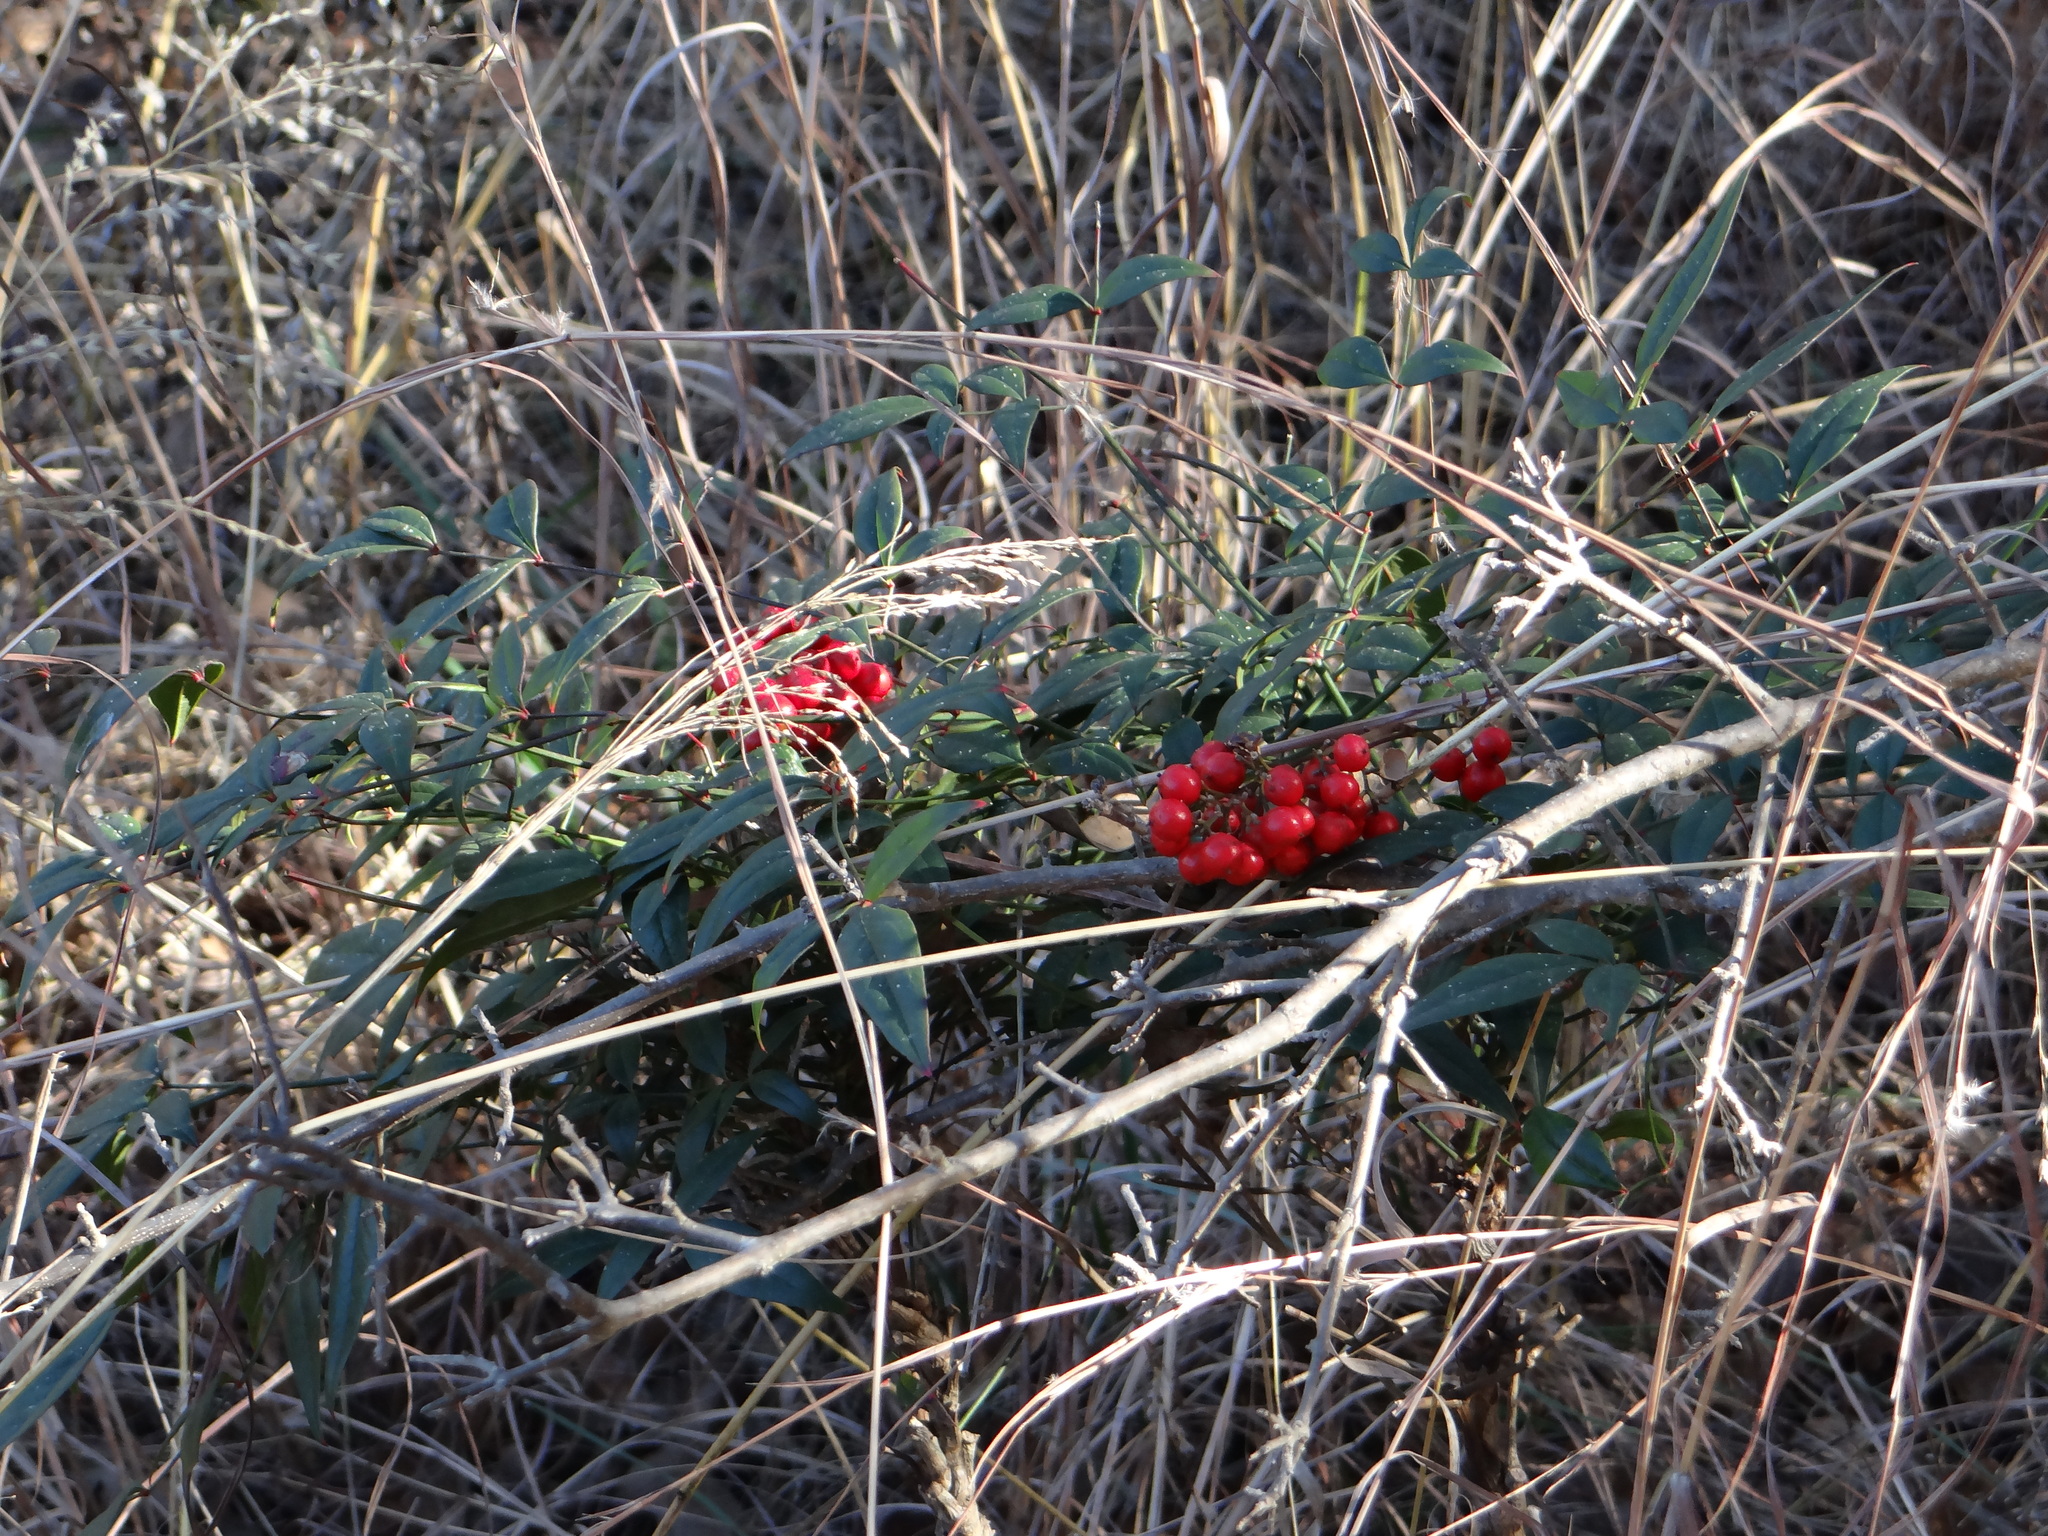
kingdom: Plantae
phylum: Tracheophyta
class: Magnoliopsida
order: Ranunculales
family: Berberidaceae
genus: Nandina
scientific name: Nandina domestica
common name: Sacred bamboo
